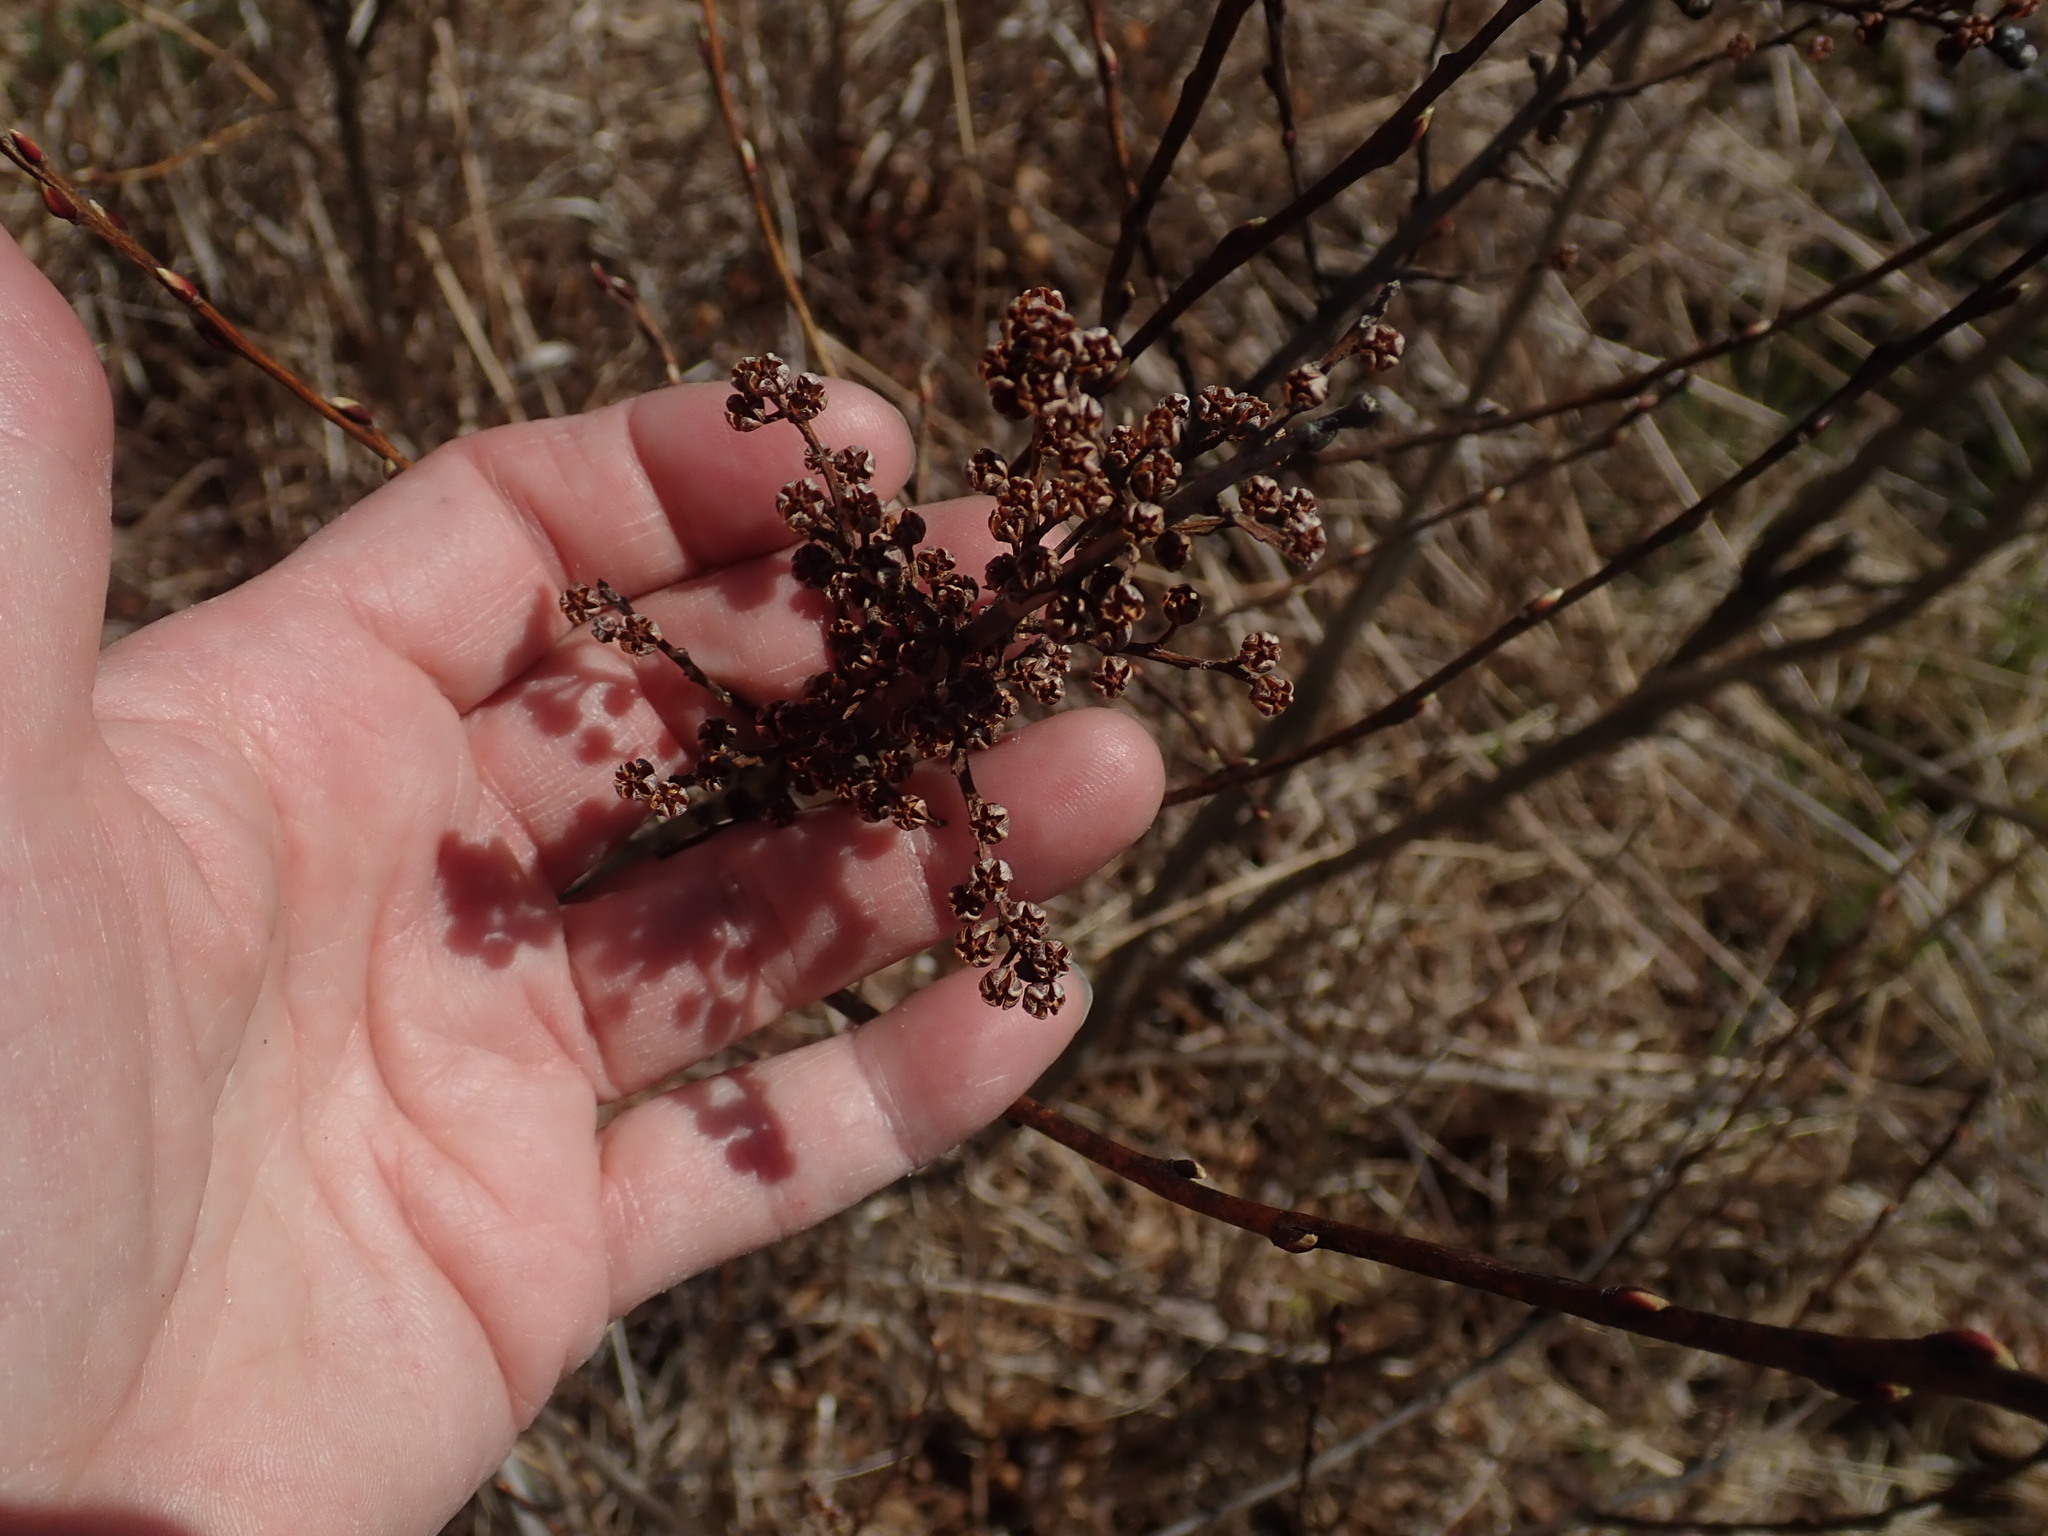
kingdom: Plantae
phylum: Tracheophyta
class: Magnoliopsida
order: Ericales
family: Ericaceae
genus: Lyonia
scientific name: Lyonia ligustrina
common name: Maleberry
